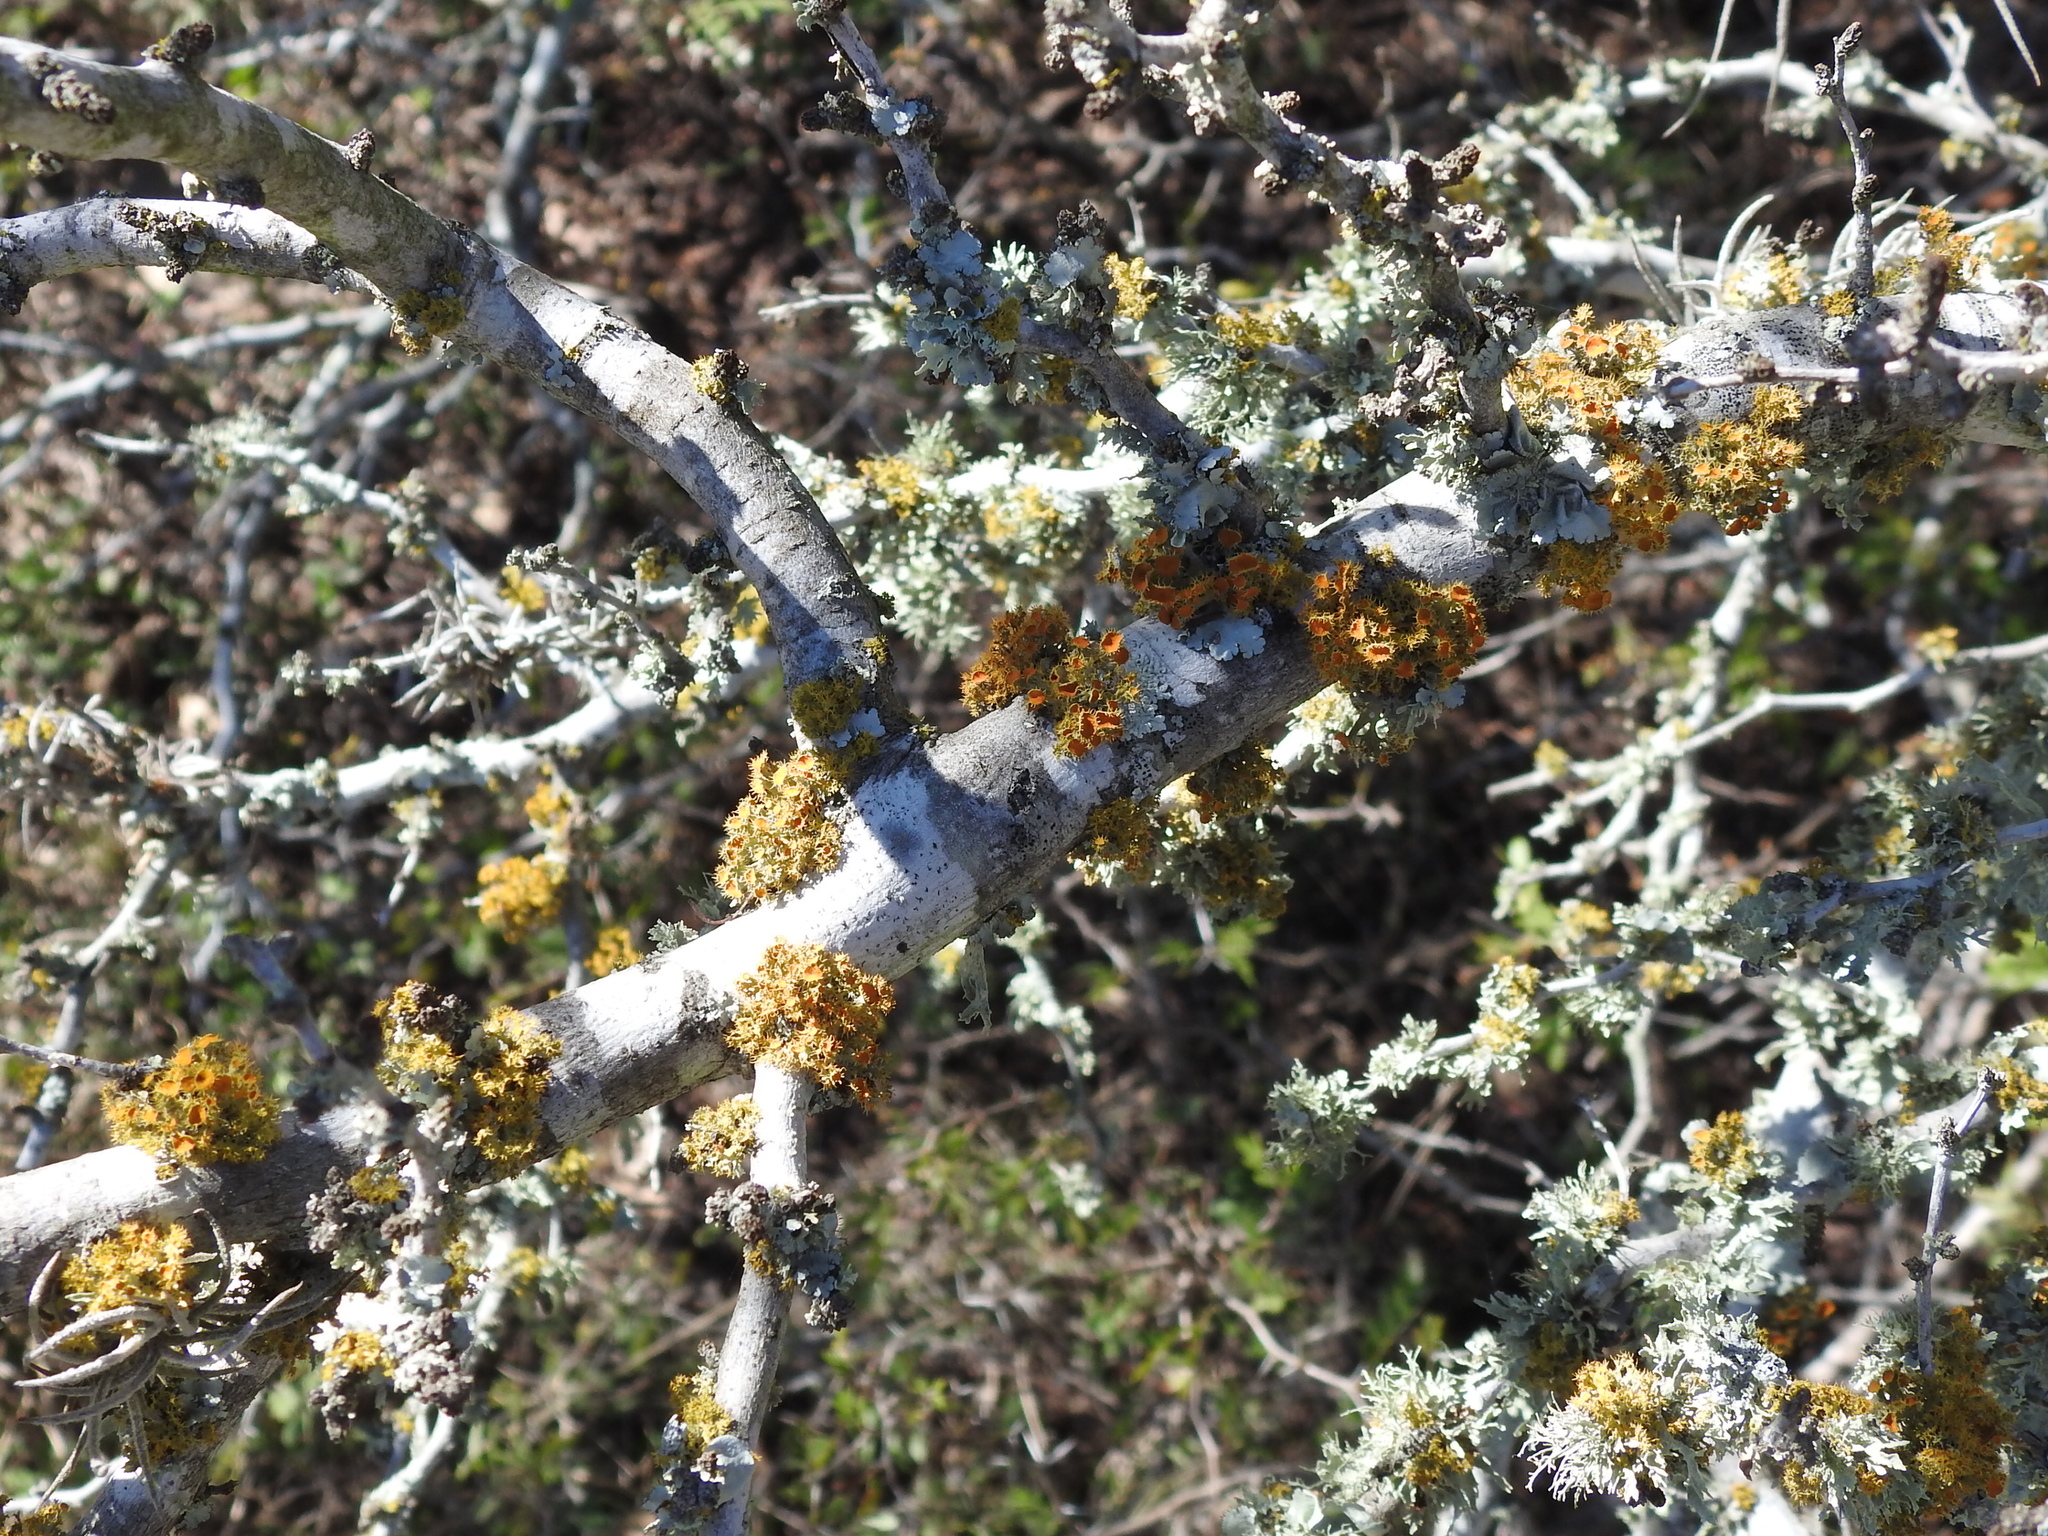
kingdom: Fungi
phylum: Ascomycota
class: Lecanoromycetes
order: Teloschistales
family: Teloschistaceae
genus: Niorma
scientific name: Niorma chrysophthalma
